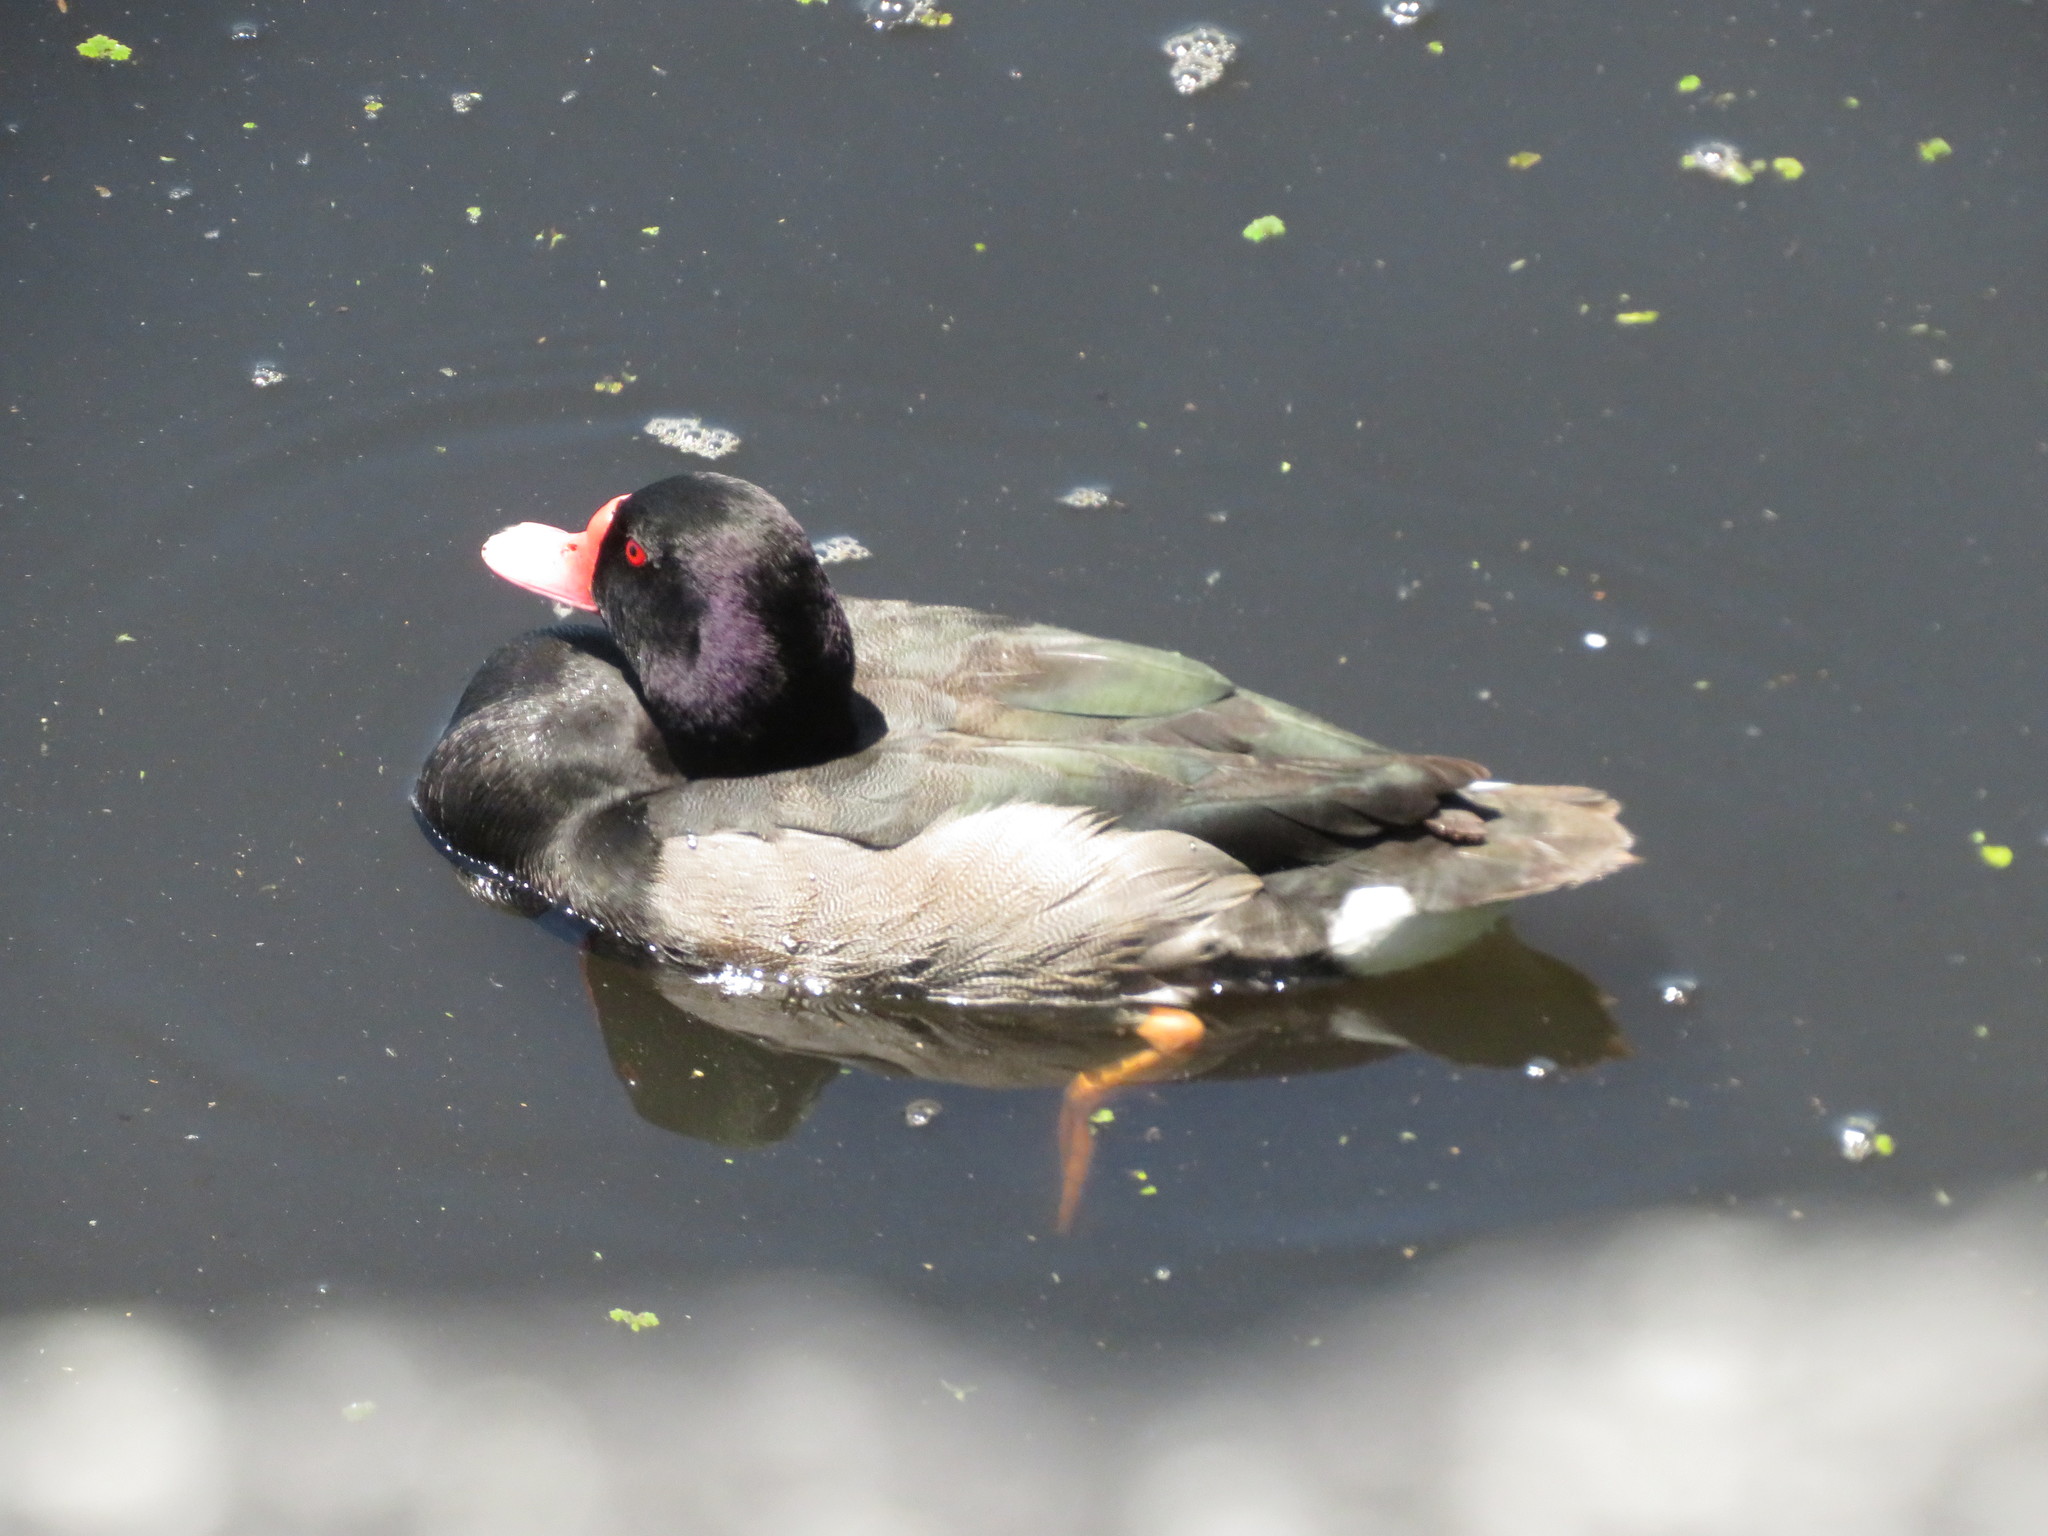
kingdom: Animalia
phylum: Chordata
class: Aves
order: Anseriformes
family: Anatidae
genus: Netta
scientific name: Netta peposaca
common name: Rosy-billed pochard
